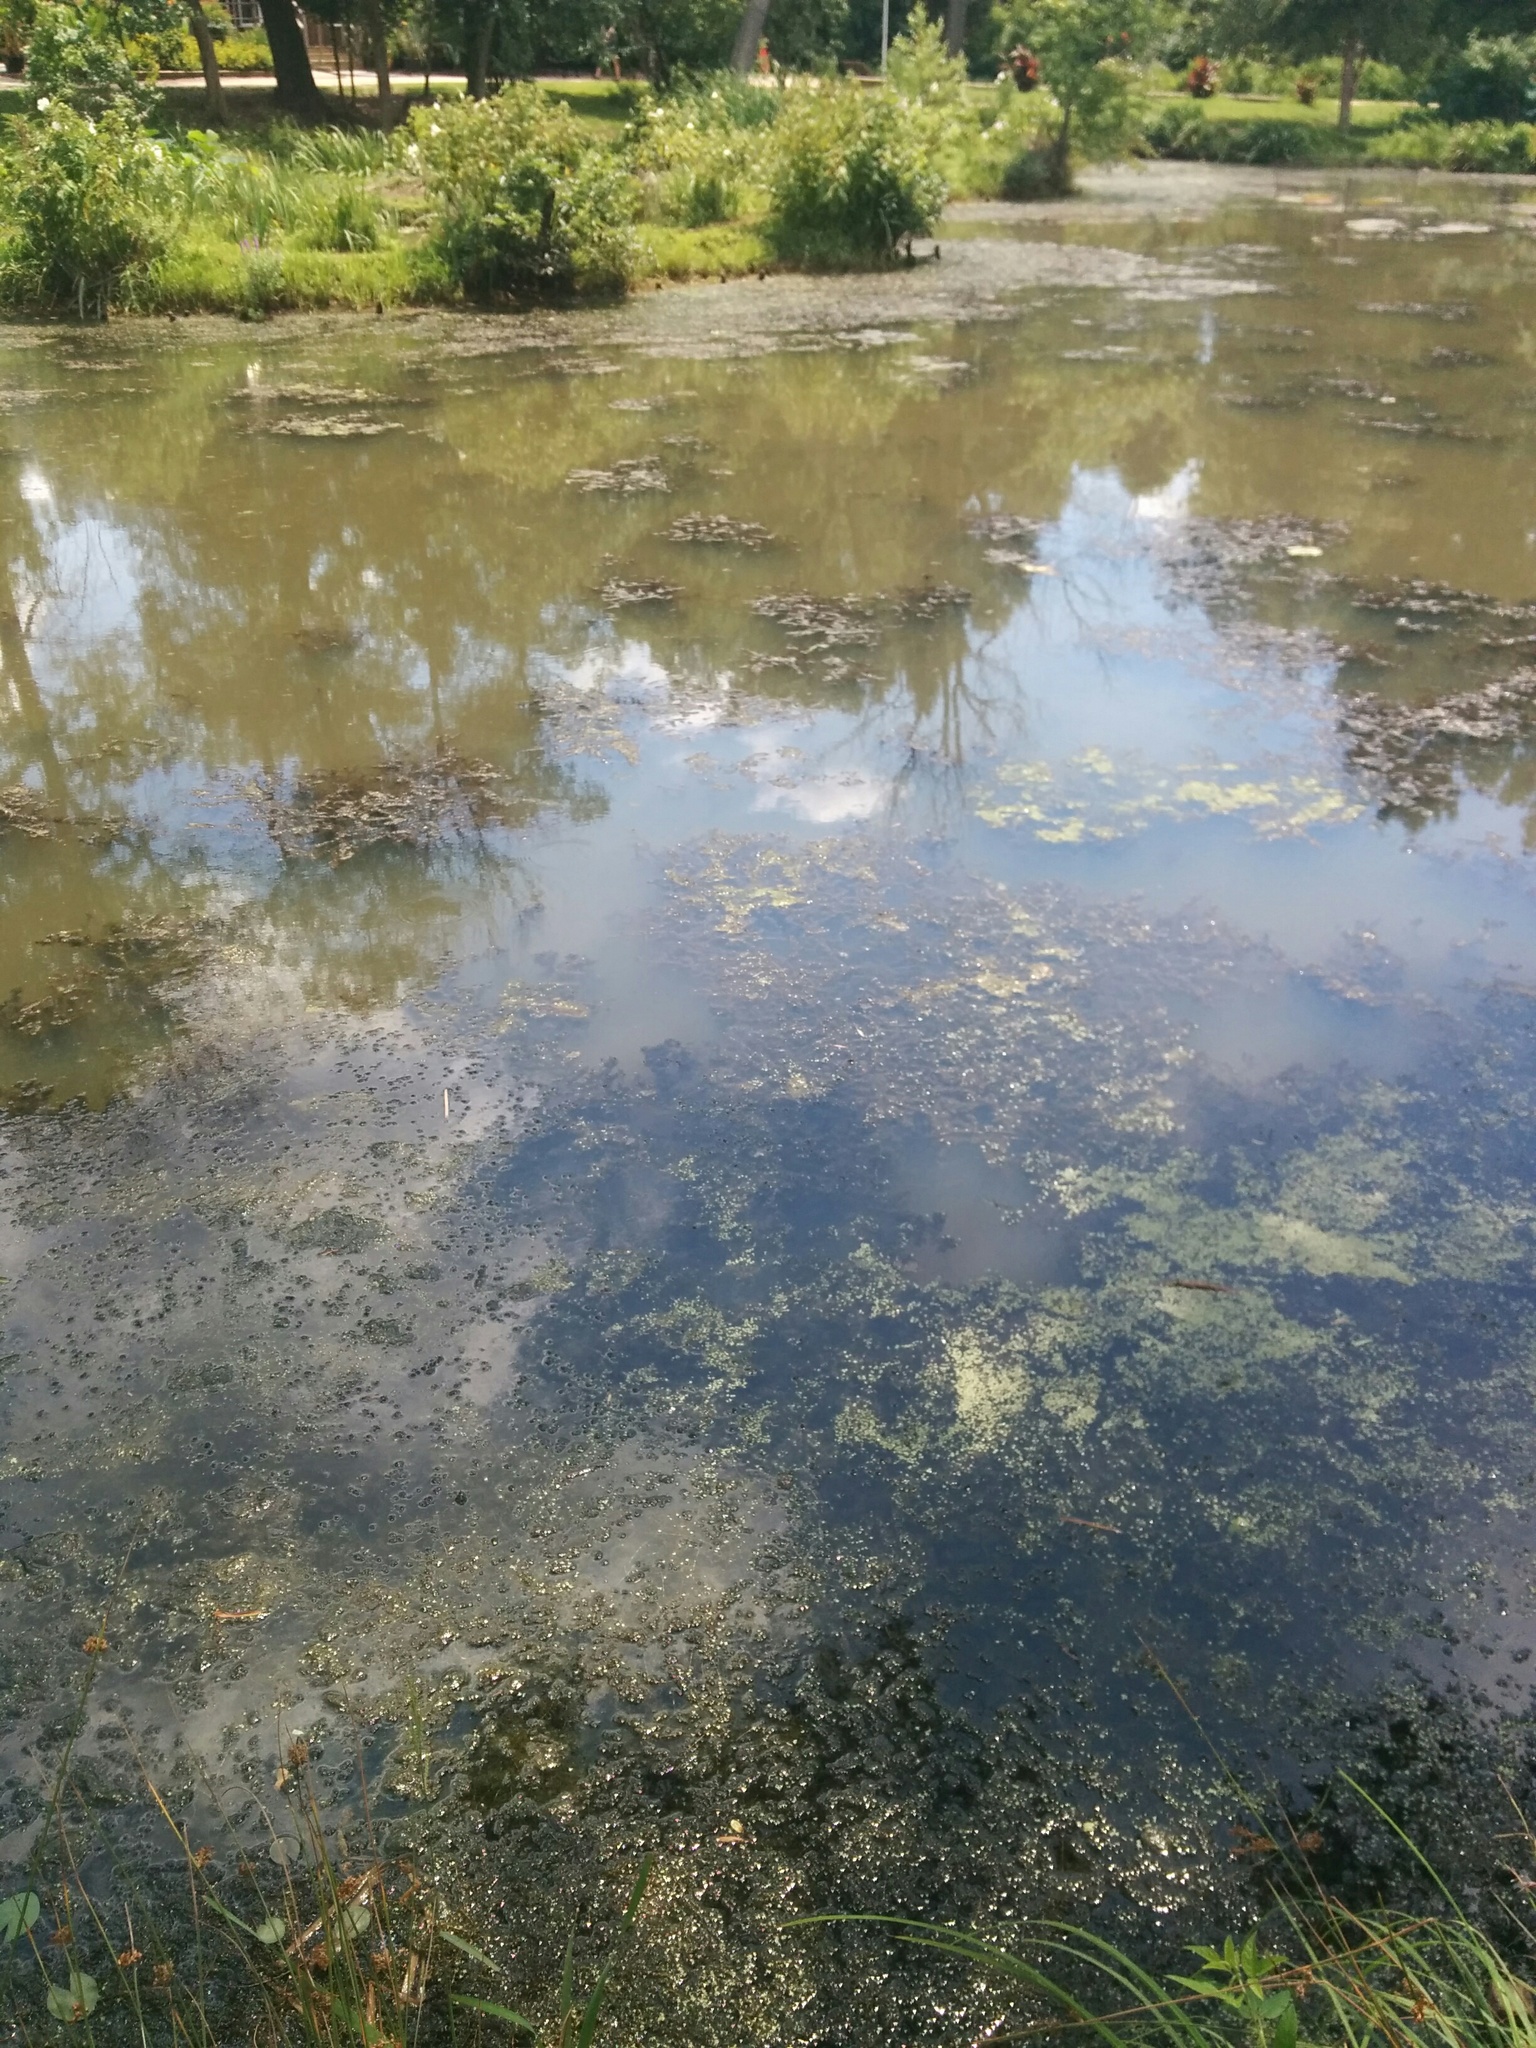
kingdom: Plantae
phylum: Tracheophyta
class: Liliopsida
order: Alismatales
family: Hydrocharitaceae
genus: Hydrilla
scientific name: Hydrilla verticillata
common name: Florida-elodea
